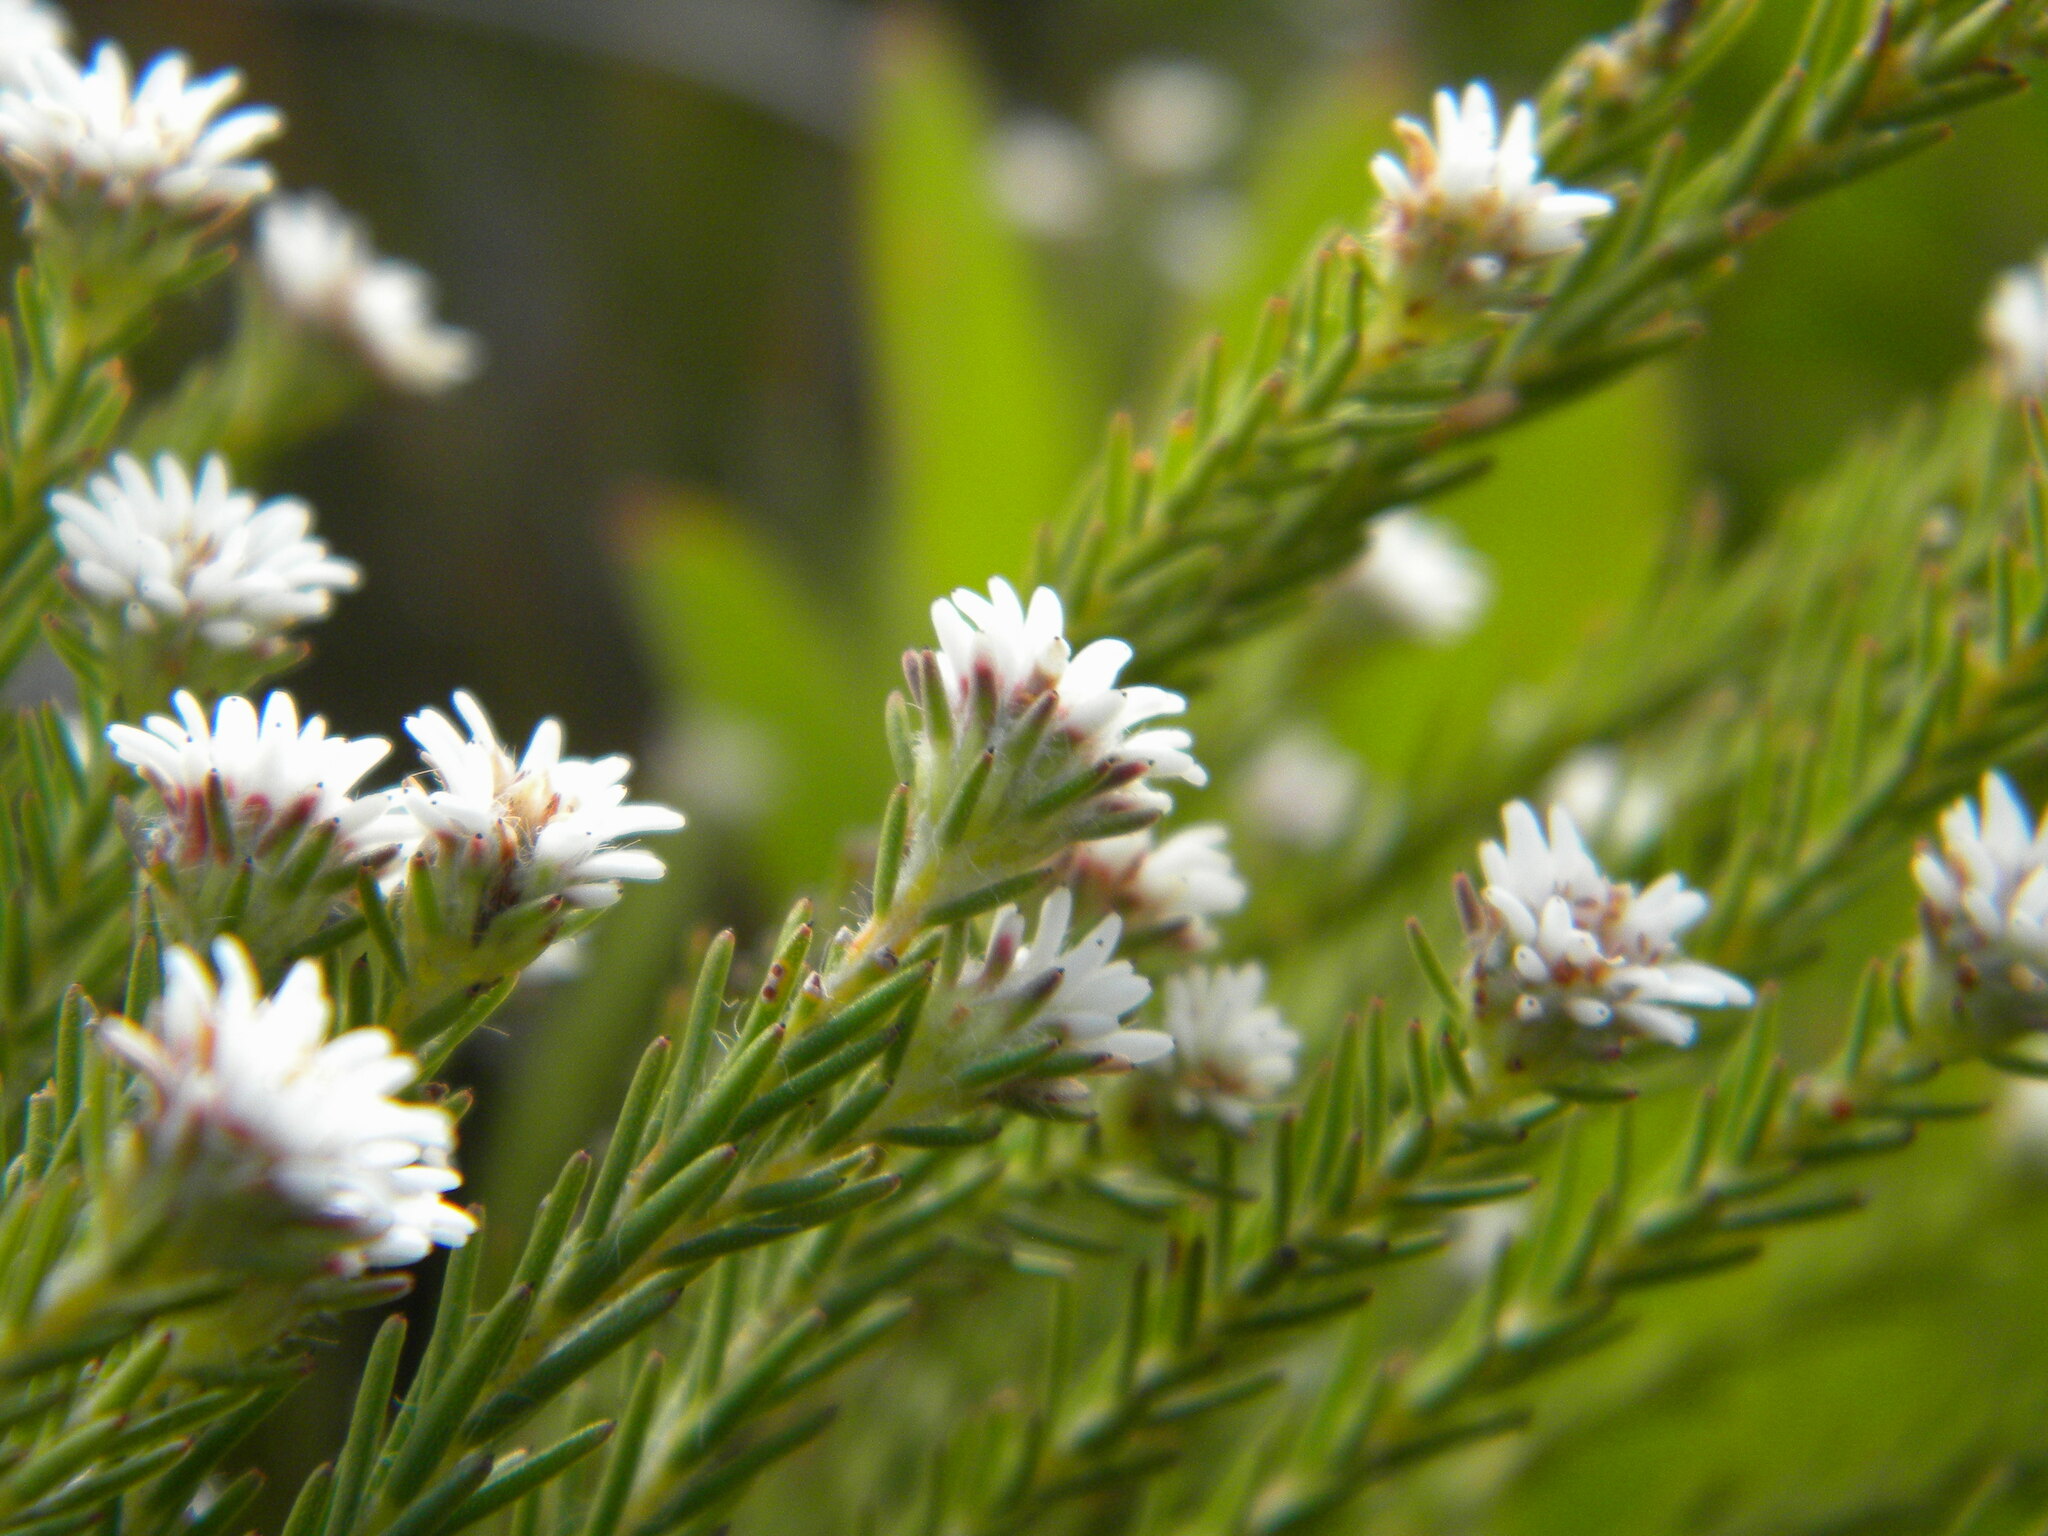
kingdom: Plantae
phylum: Tracheophyta
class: Magnoliopsida
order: Bruniales
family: Bruniaceae
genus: Staavia
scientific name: Staavia radiata
